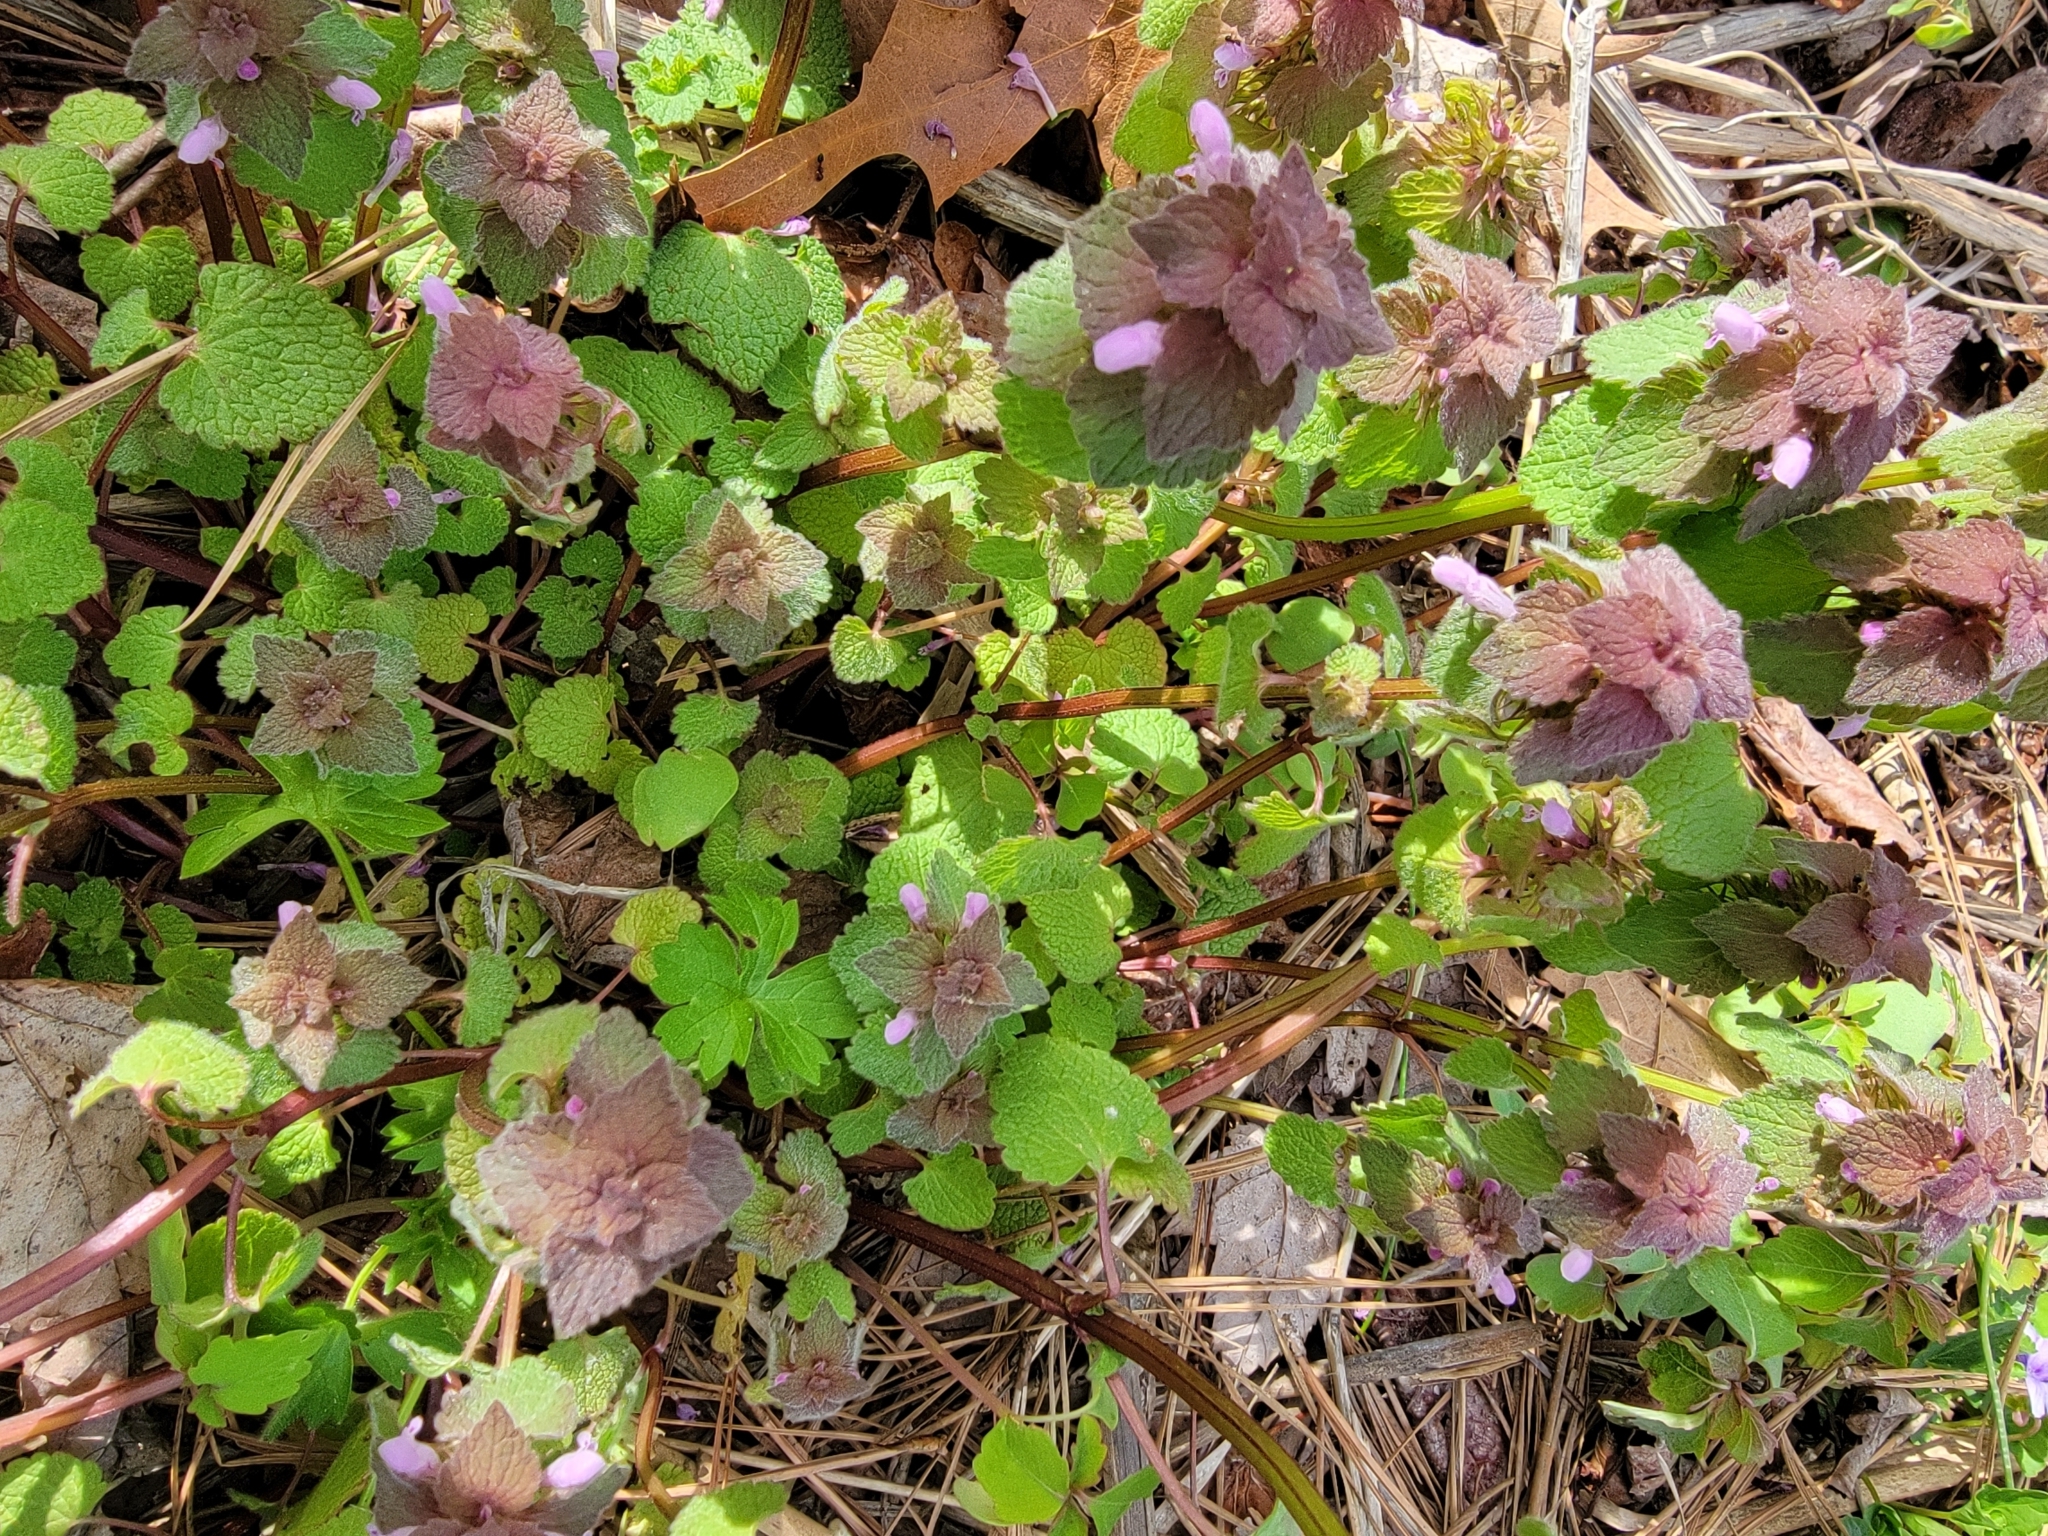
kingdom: Plantae
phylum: Tracheophyta
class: Magnoliopsida
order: Lamiales
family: Lamiaceae
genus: Lamium
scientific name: Lamium purpureum
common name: Red dead-nettle
